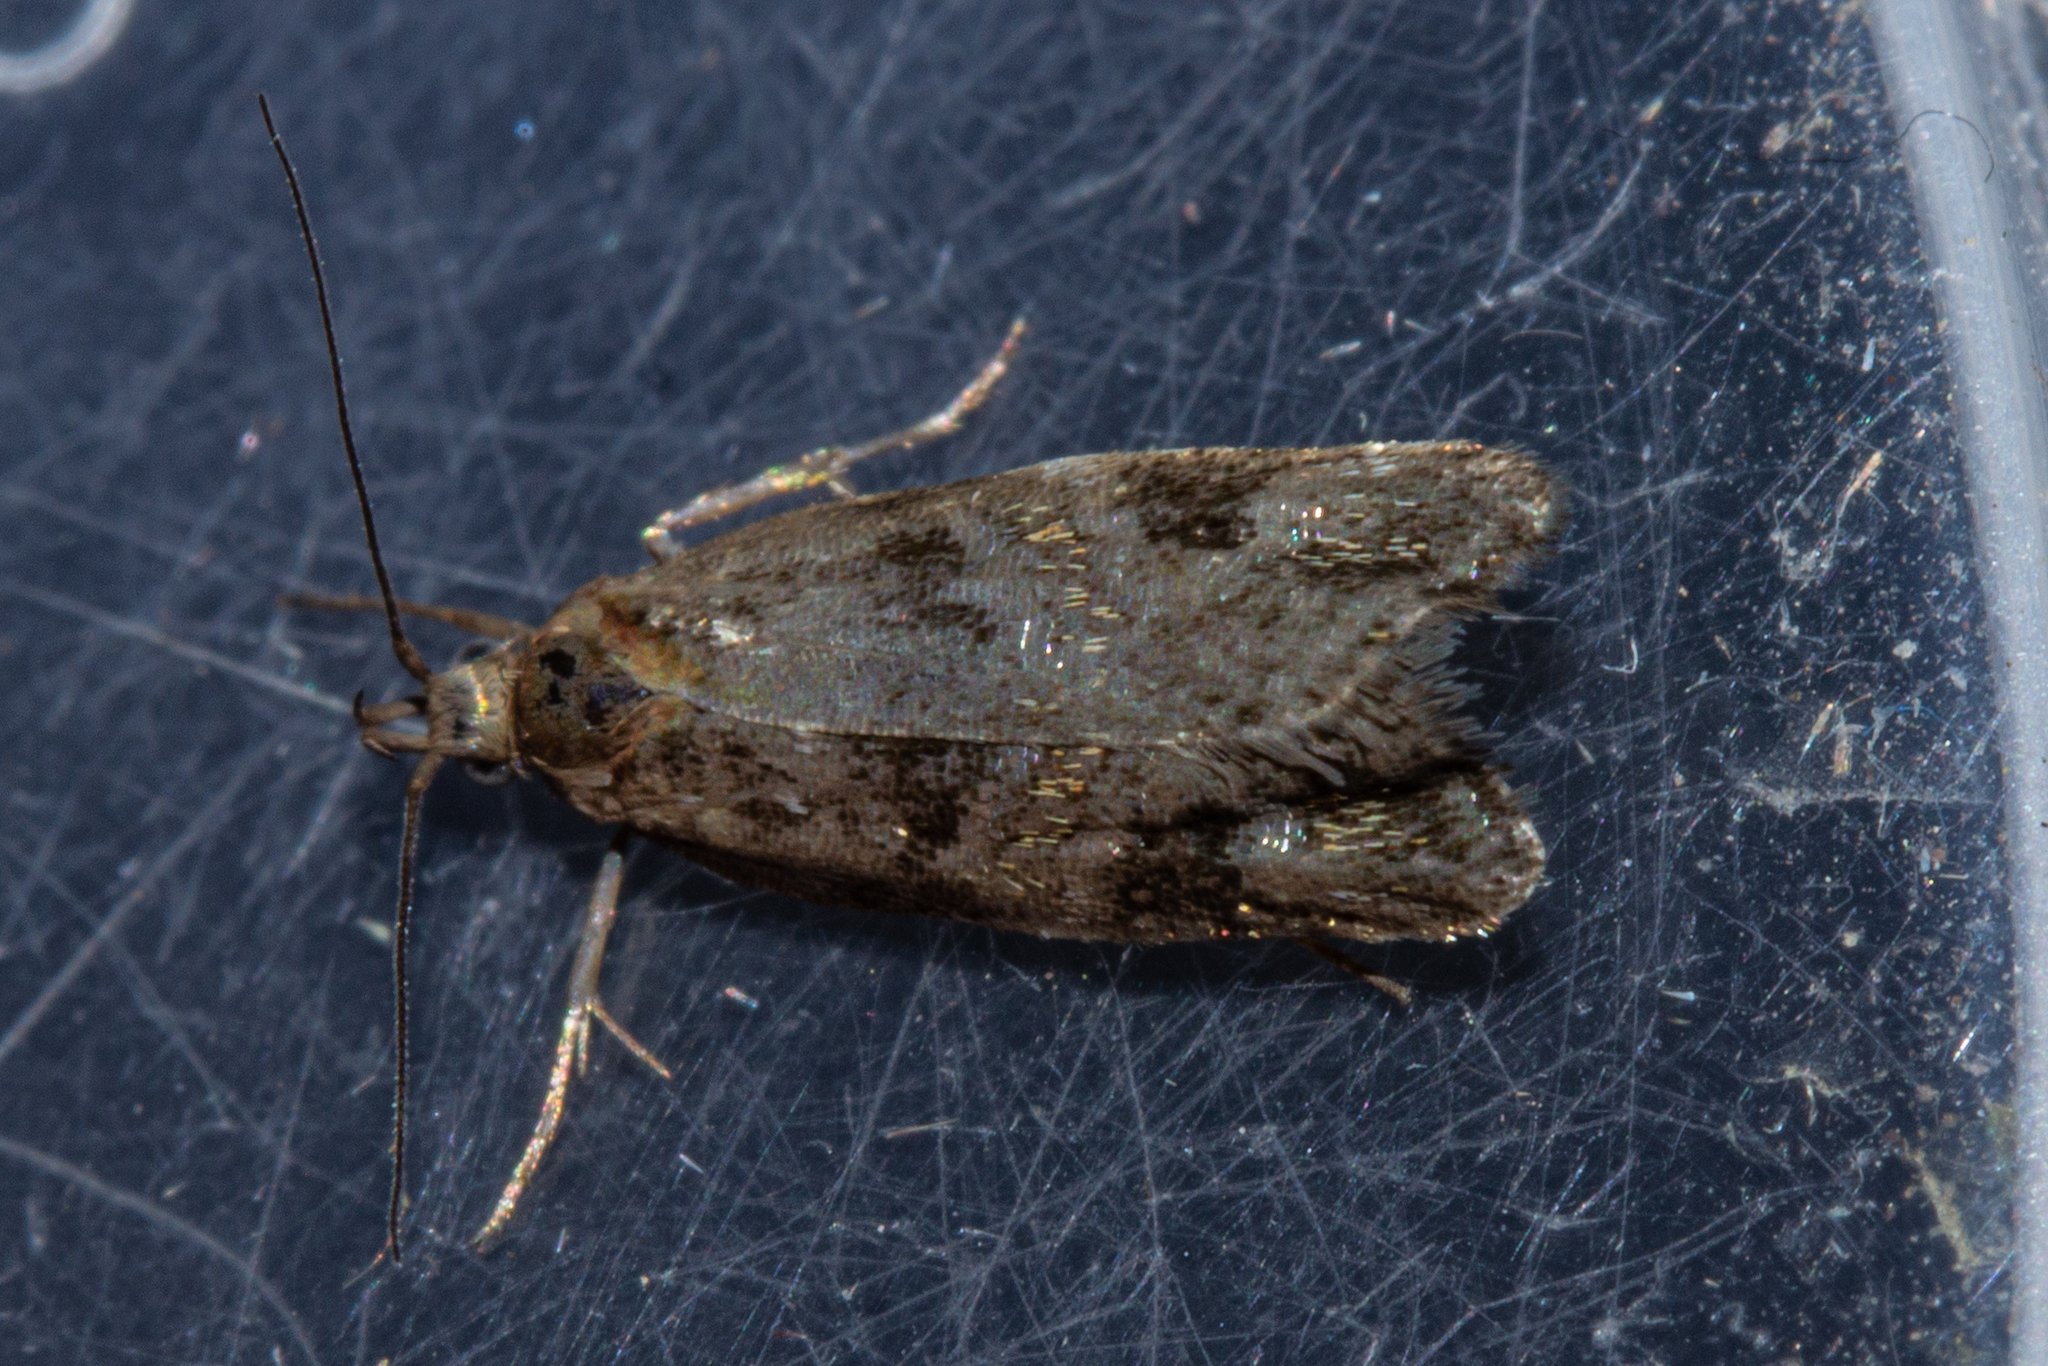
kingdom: Animalia
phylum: Arthropoda
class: Insecta
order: Lepidoptera
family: Oecophoridae
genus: Hierodoris
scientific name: Hierodoris s-fractum
